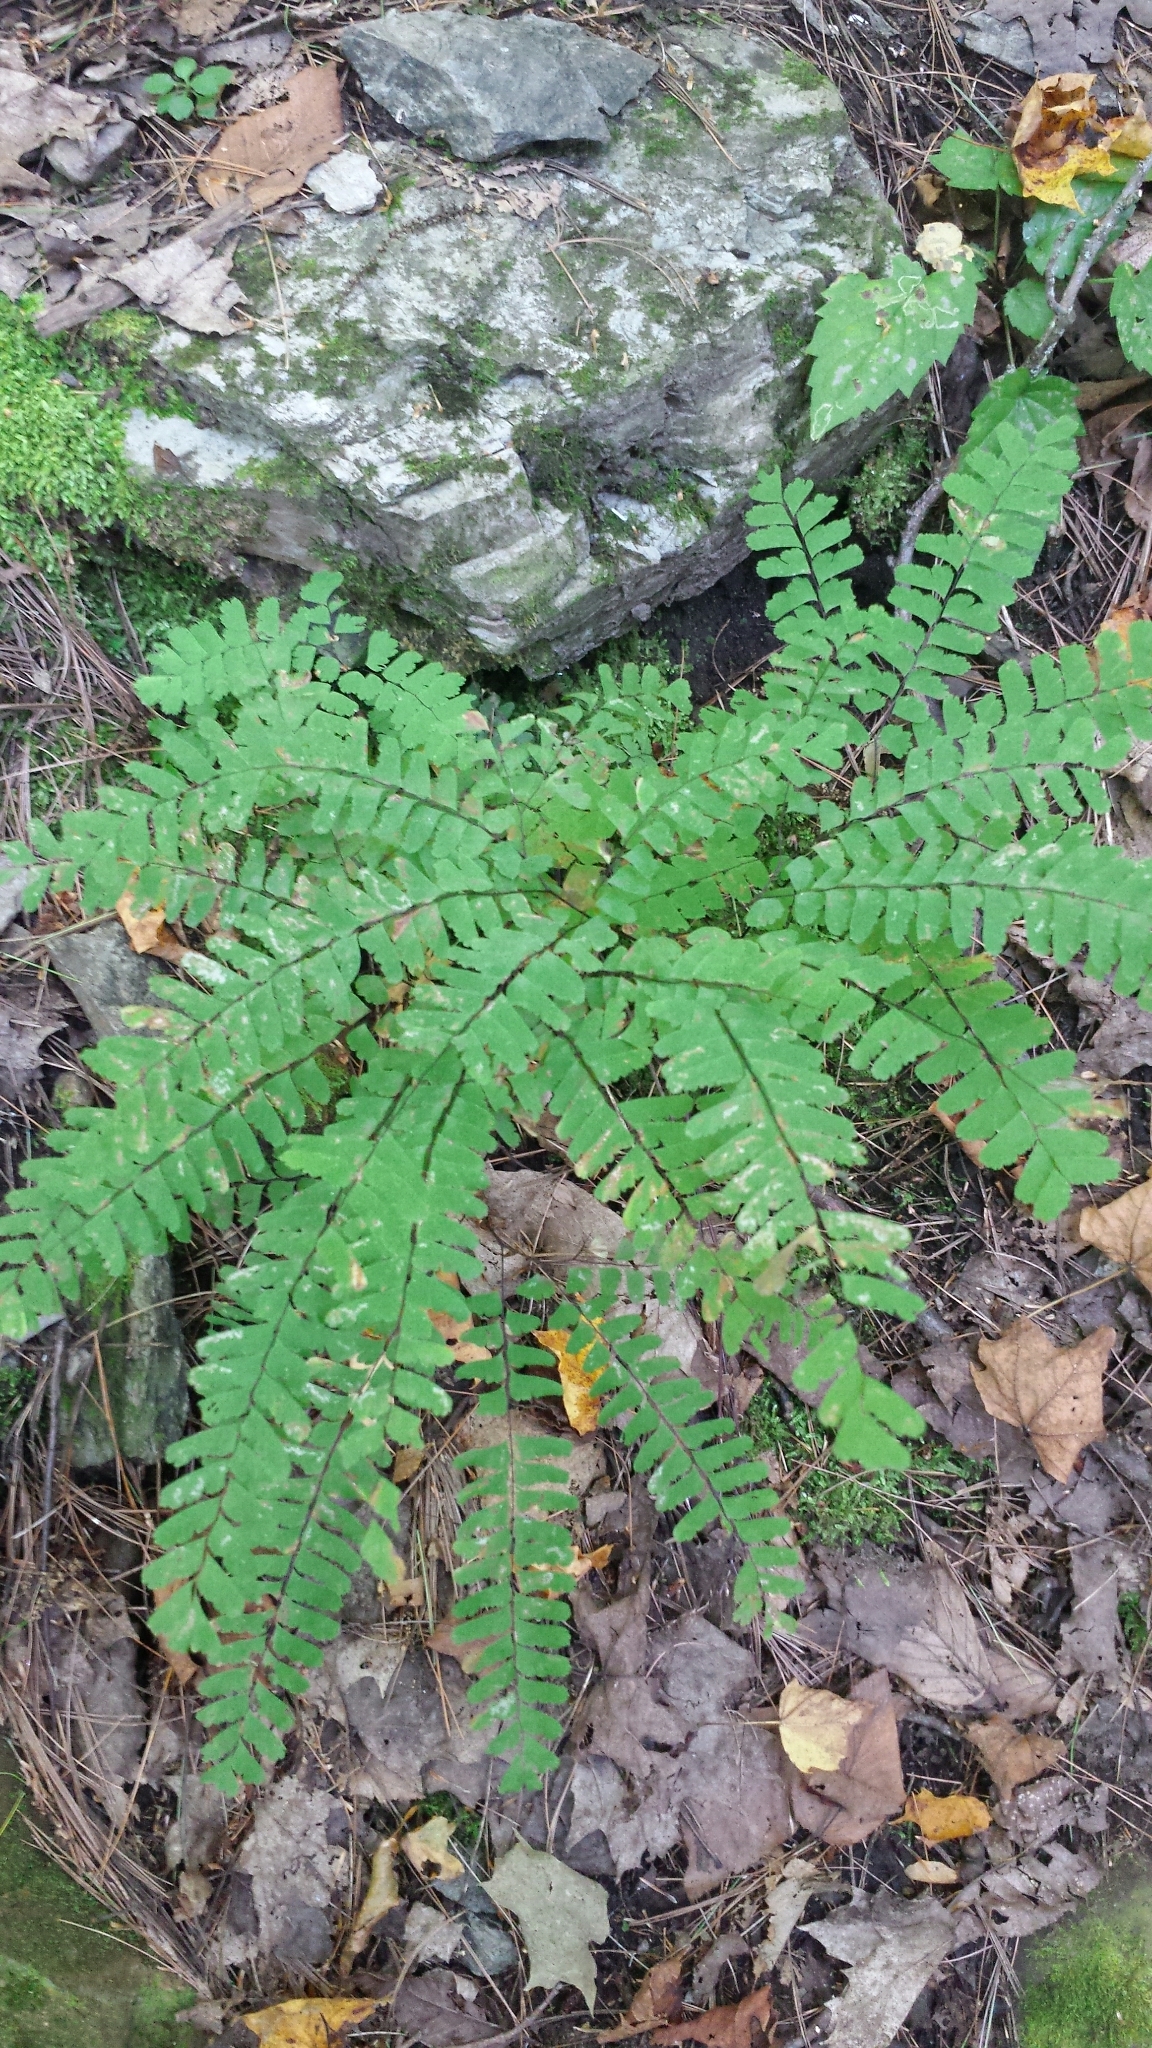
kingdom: Plantae
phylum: Tracheophyta
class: Polypodiopsida
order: Polypodiales
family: Pteridaceae
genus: Adiantum
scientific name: Adiantum pedatum
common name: Five-finger fern
